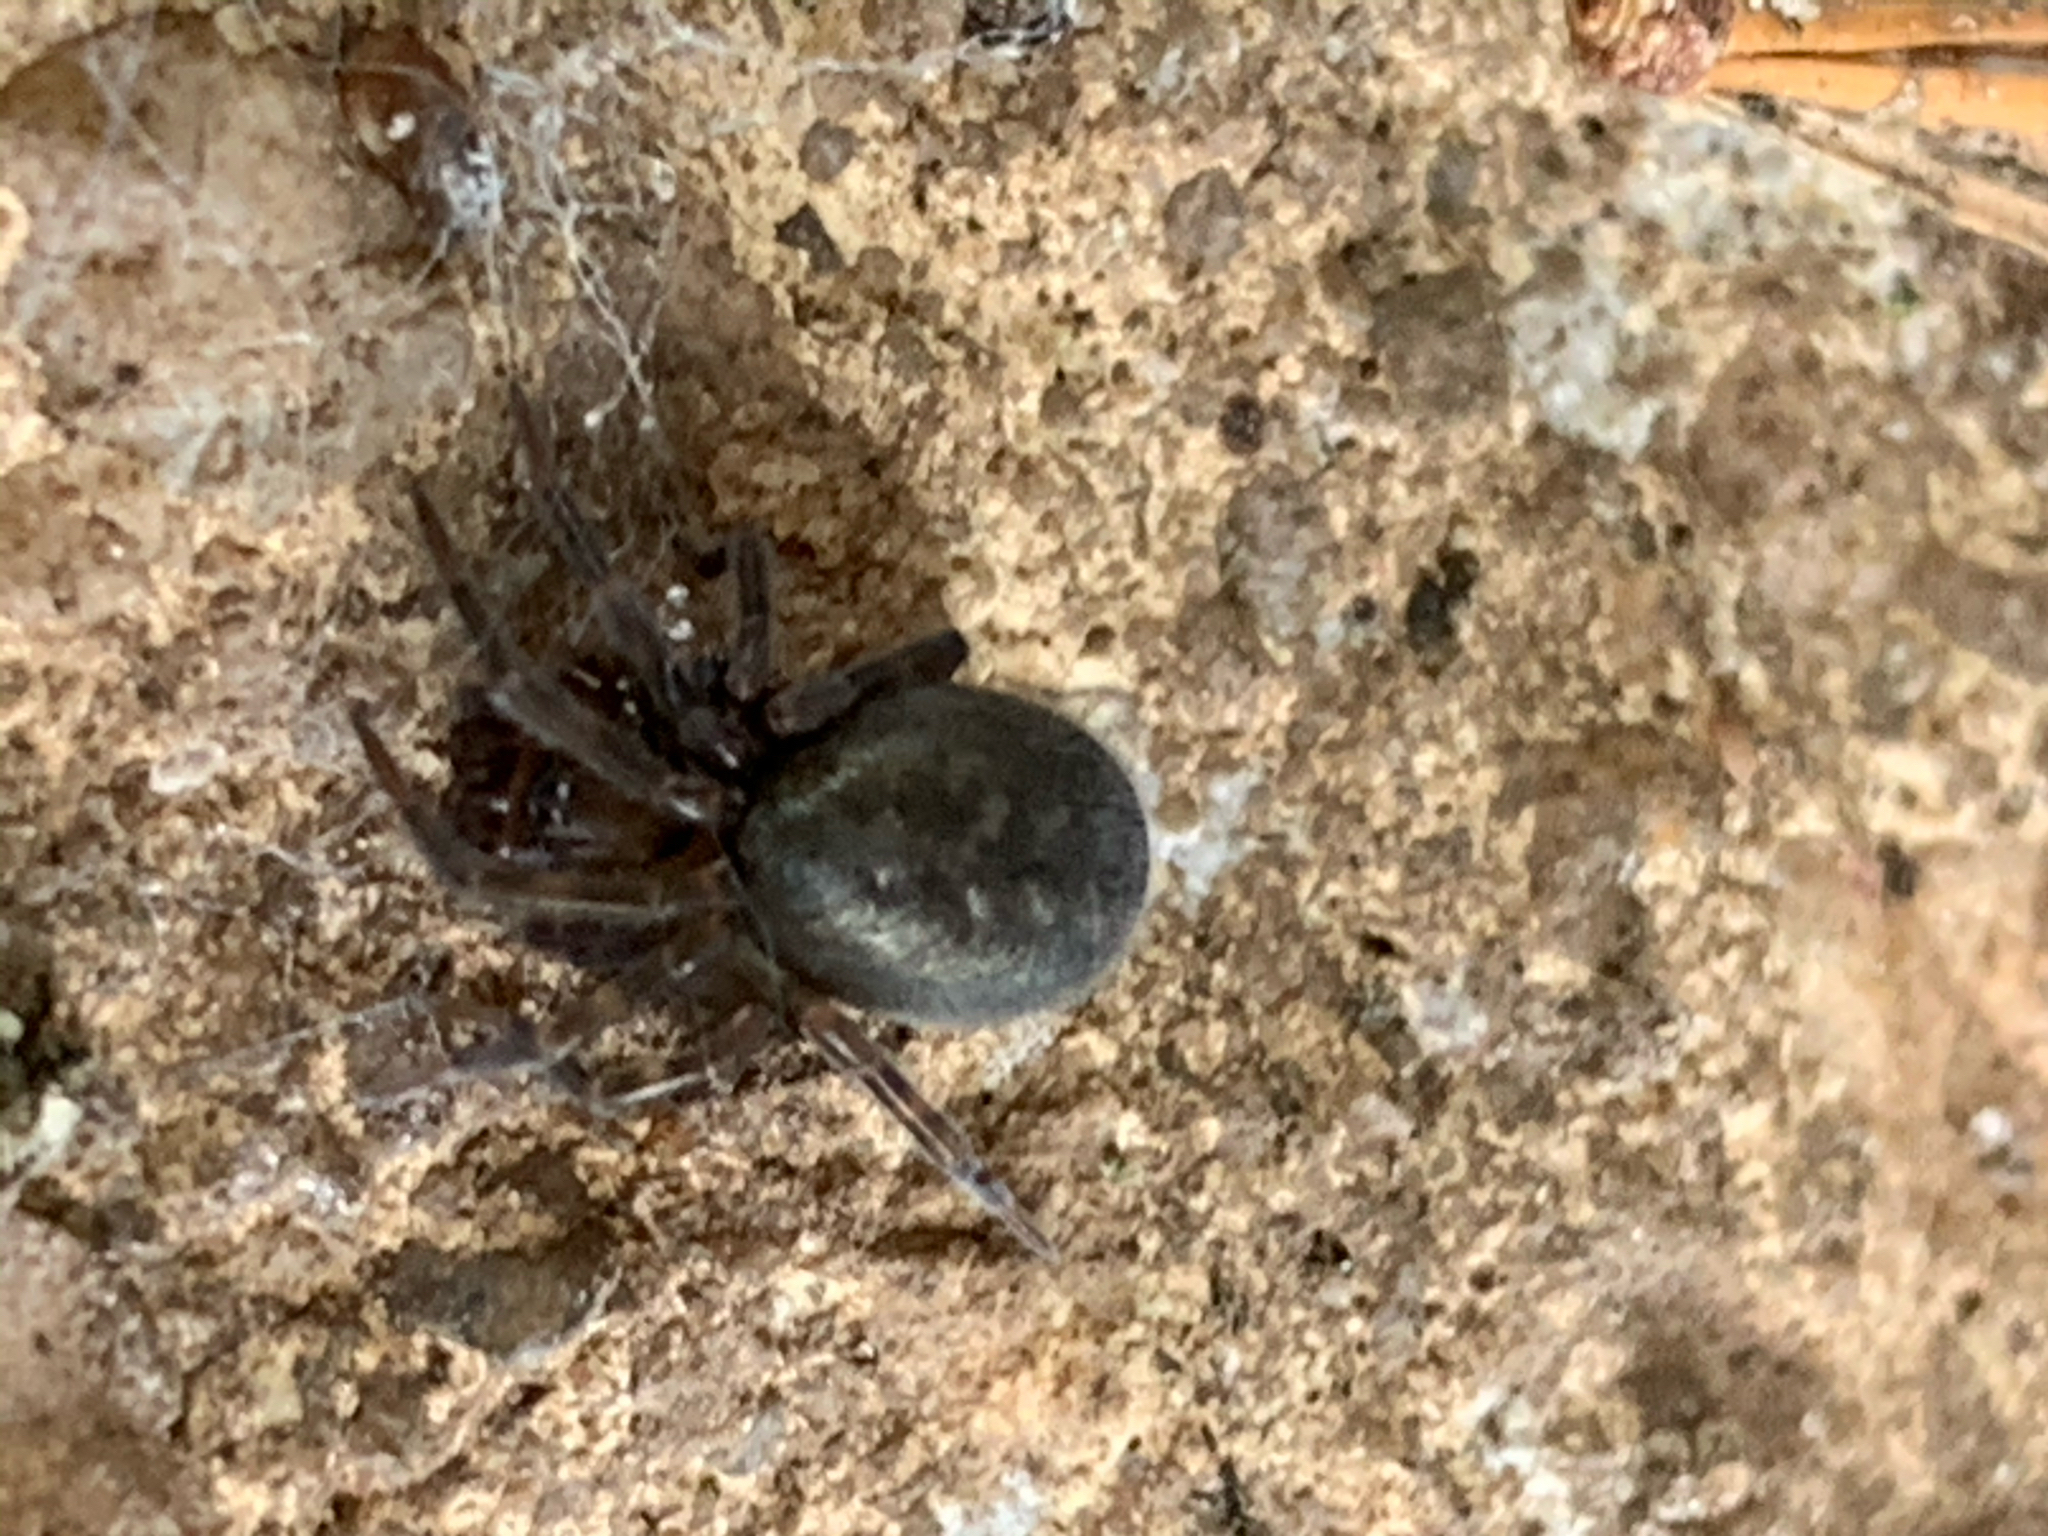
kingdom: Animalia
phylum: Arthropoda
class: Arachnida
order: Araneae
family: Amaurobiidae
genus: Amaurobius
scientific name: Amaurobius ferox
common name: Black laceweaver
